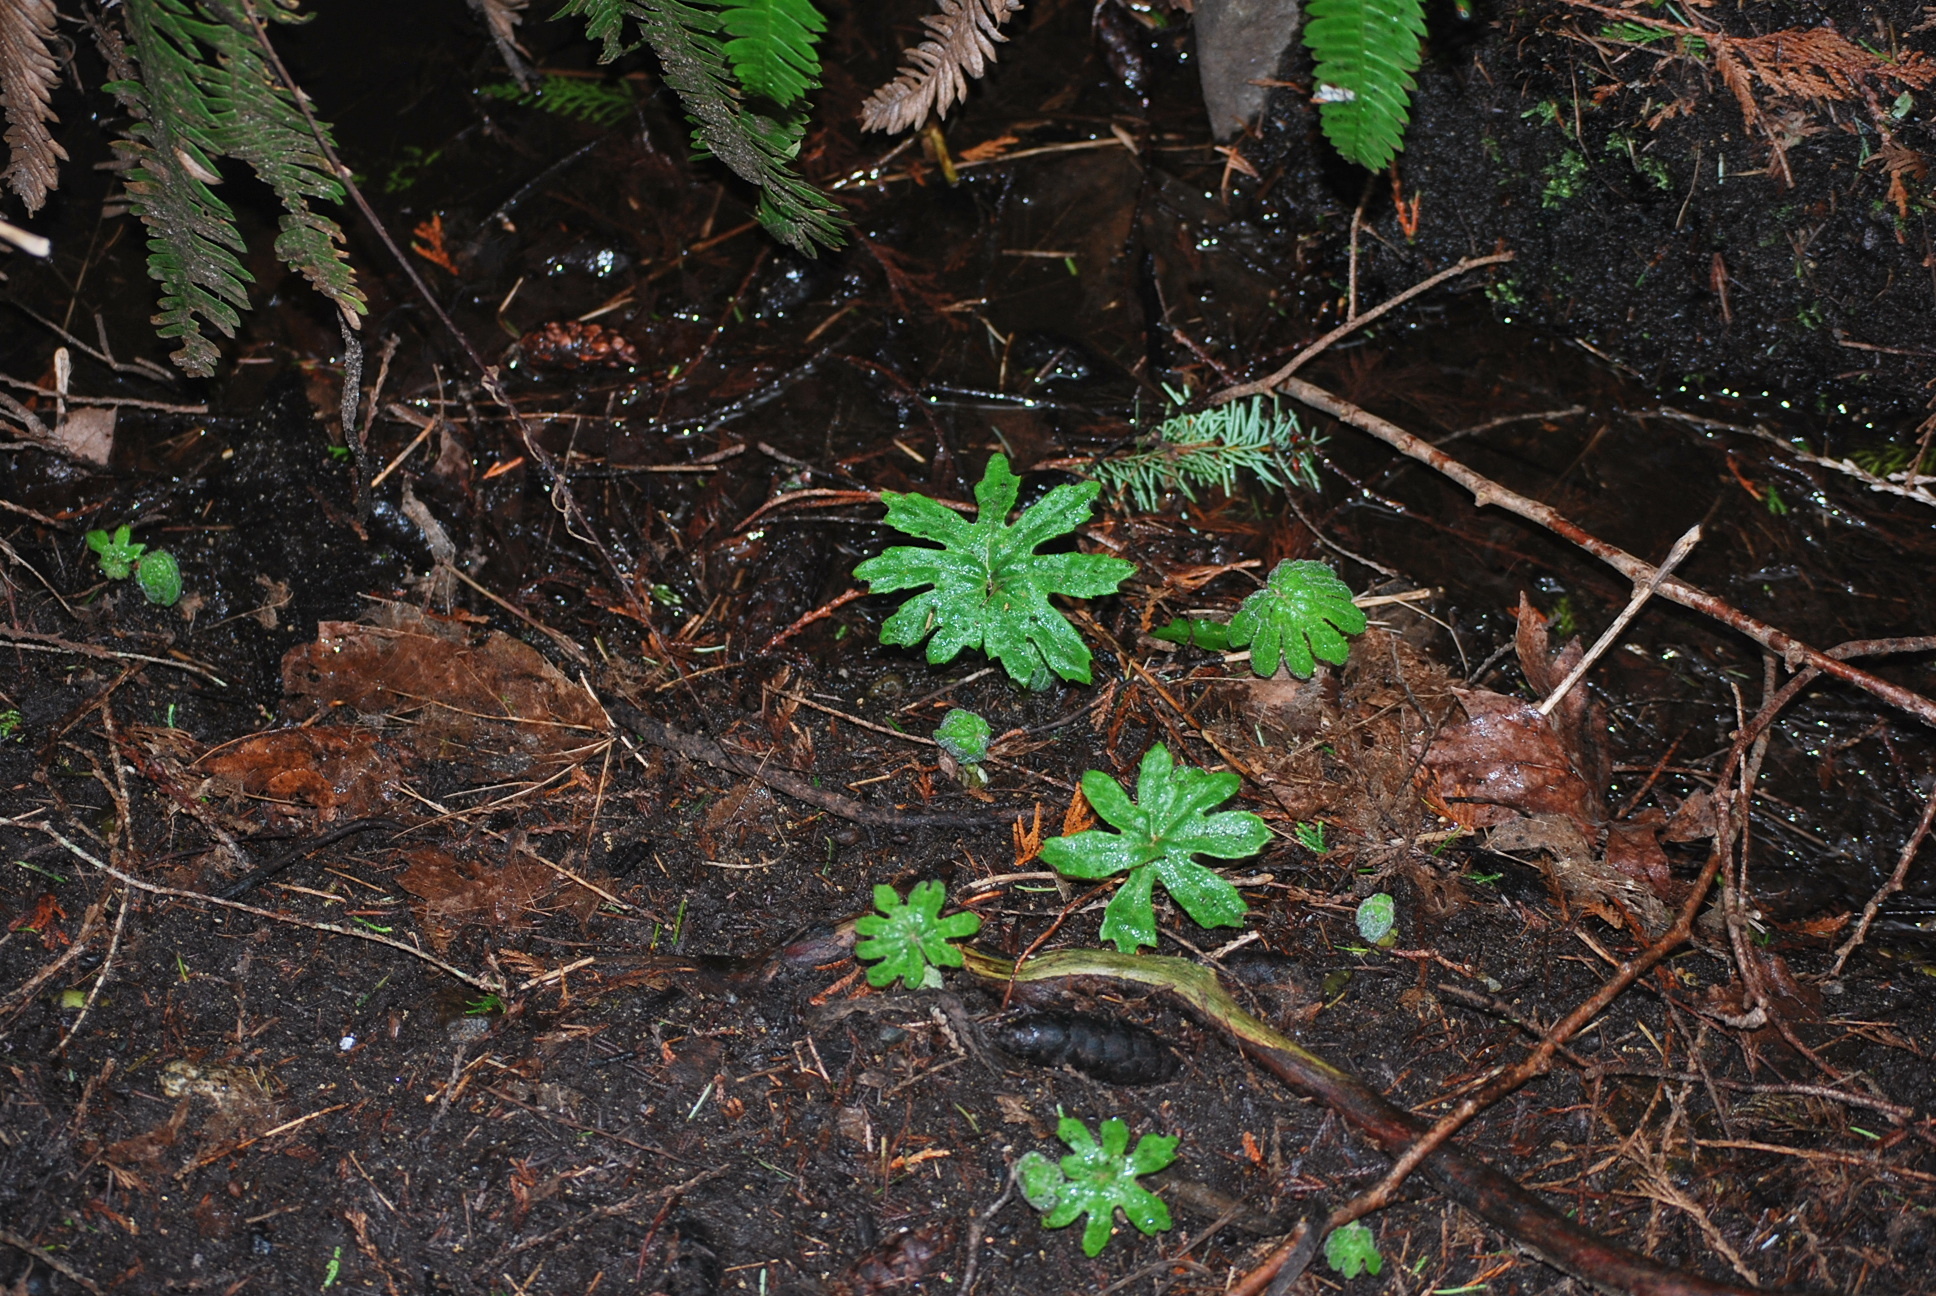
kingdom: Plantae
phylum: Tracheophyta
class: Magnoliopsida
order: Asterales
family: Asteraceae
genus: Petasites
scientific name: Petasites frigidus
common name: Arctic butterbur
